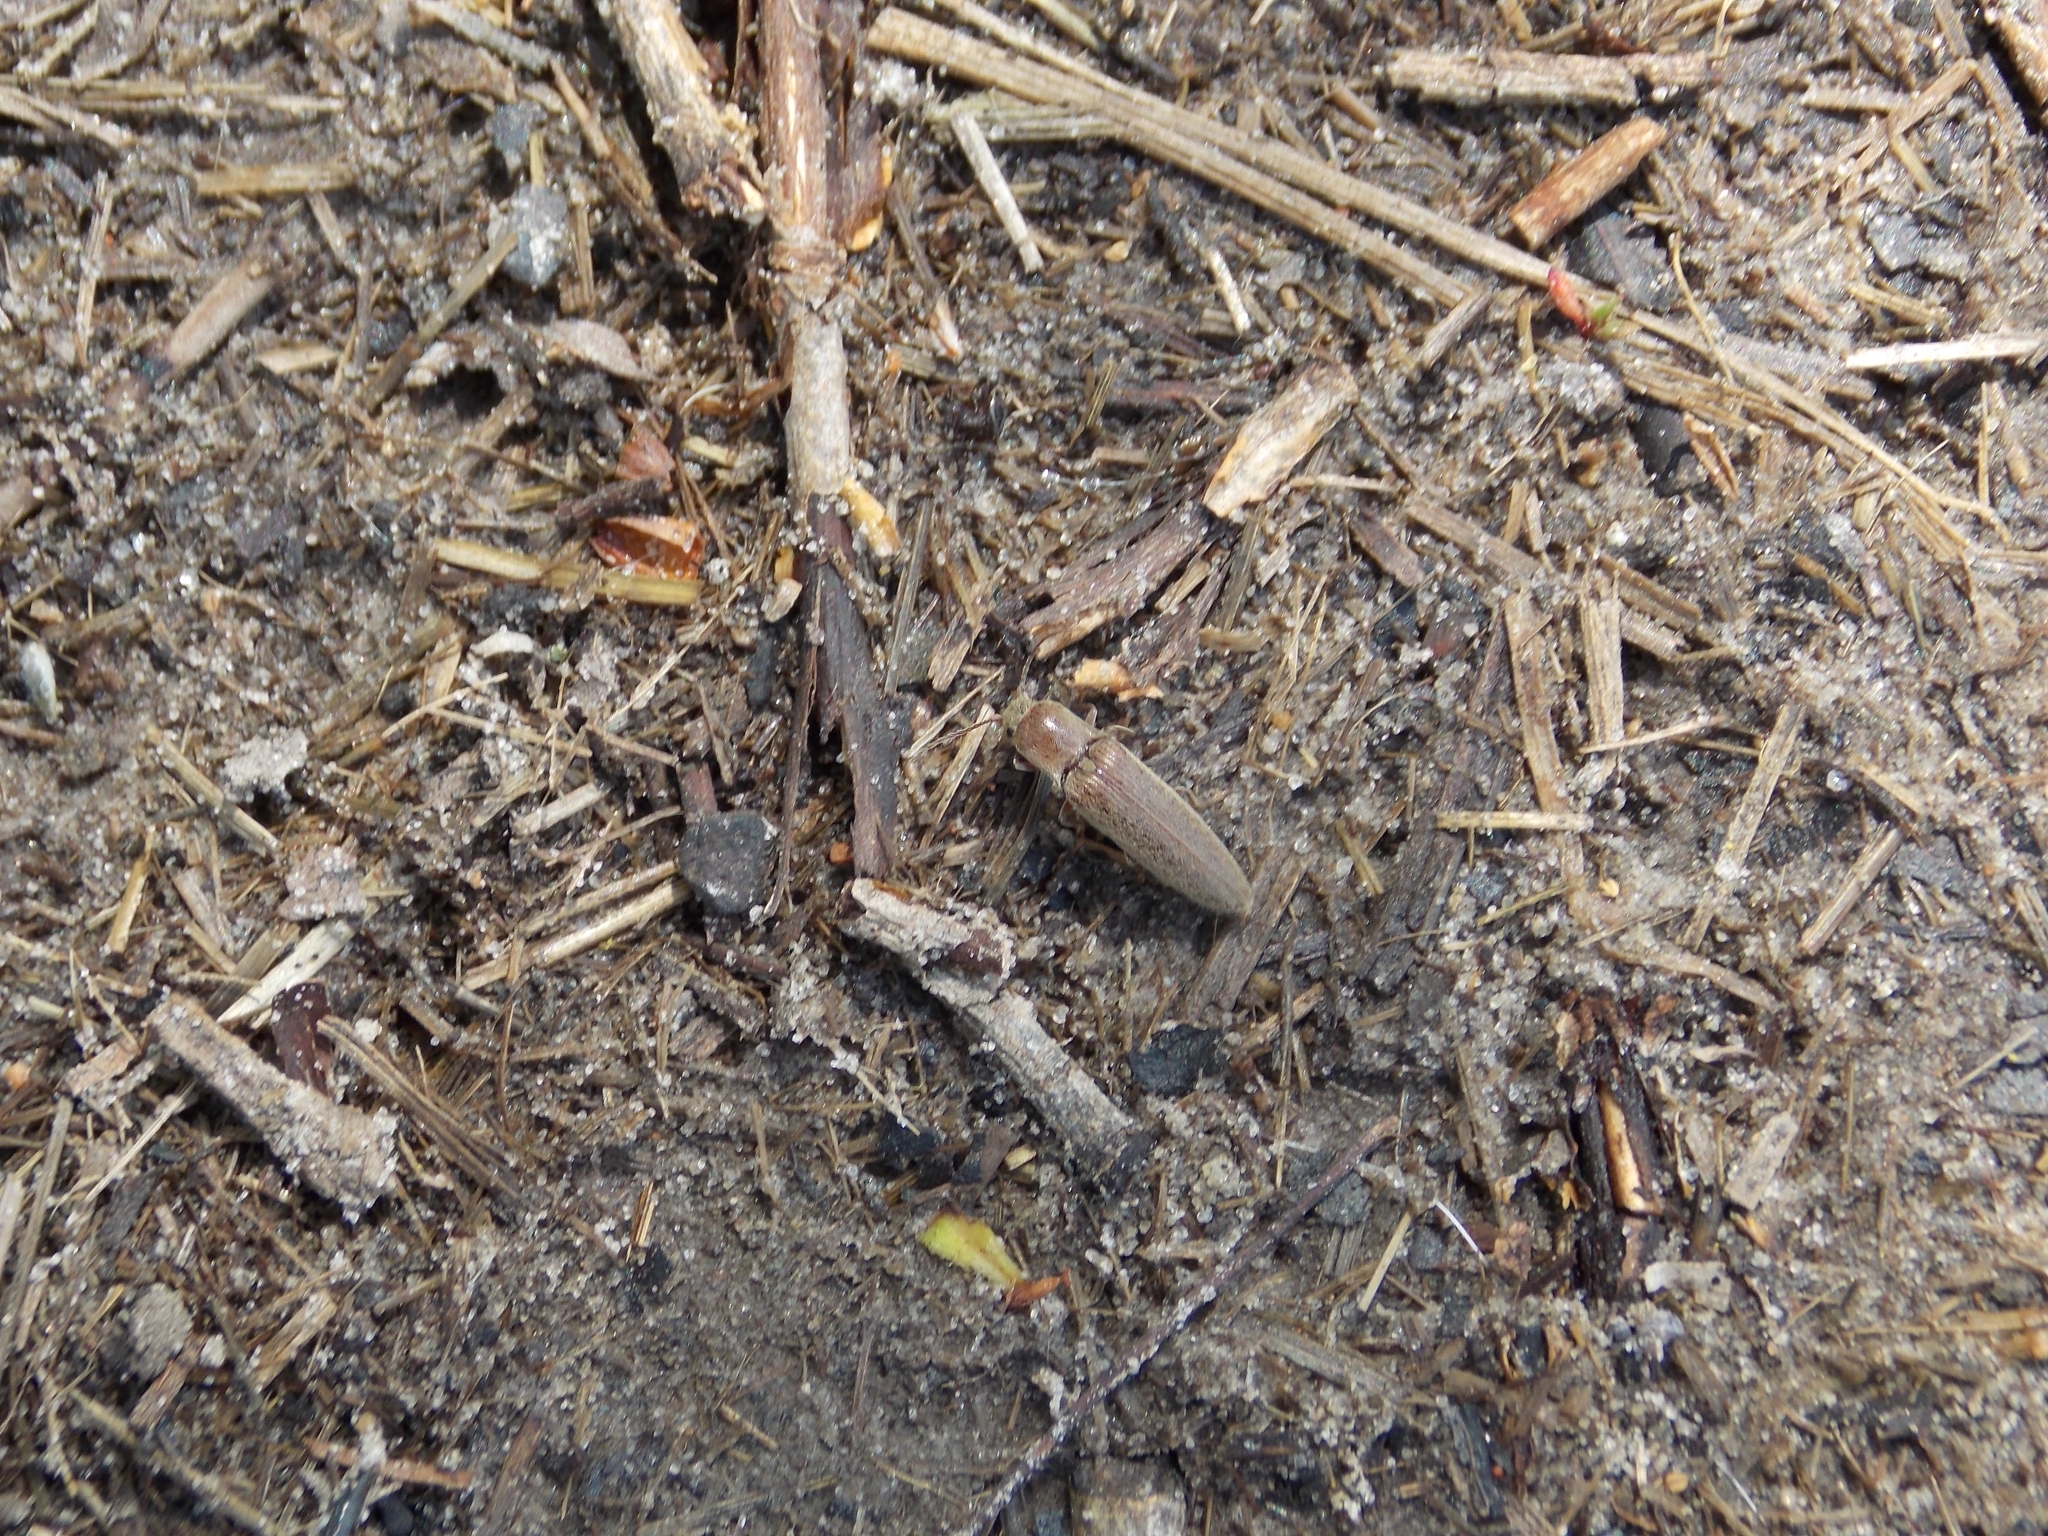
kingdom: Animalia
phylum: Arthropoda
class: Insecta
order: Coleoptera
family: Elateridae
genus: Synaptus
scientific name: Synaptus filiformis
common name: Hairy click beetle
